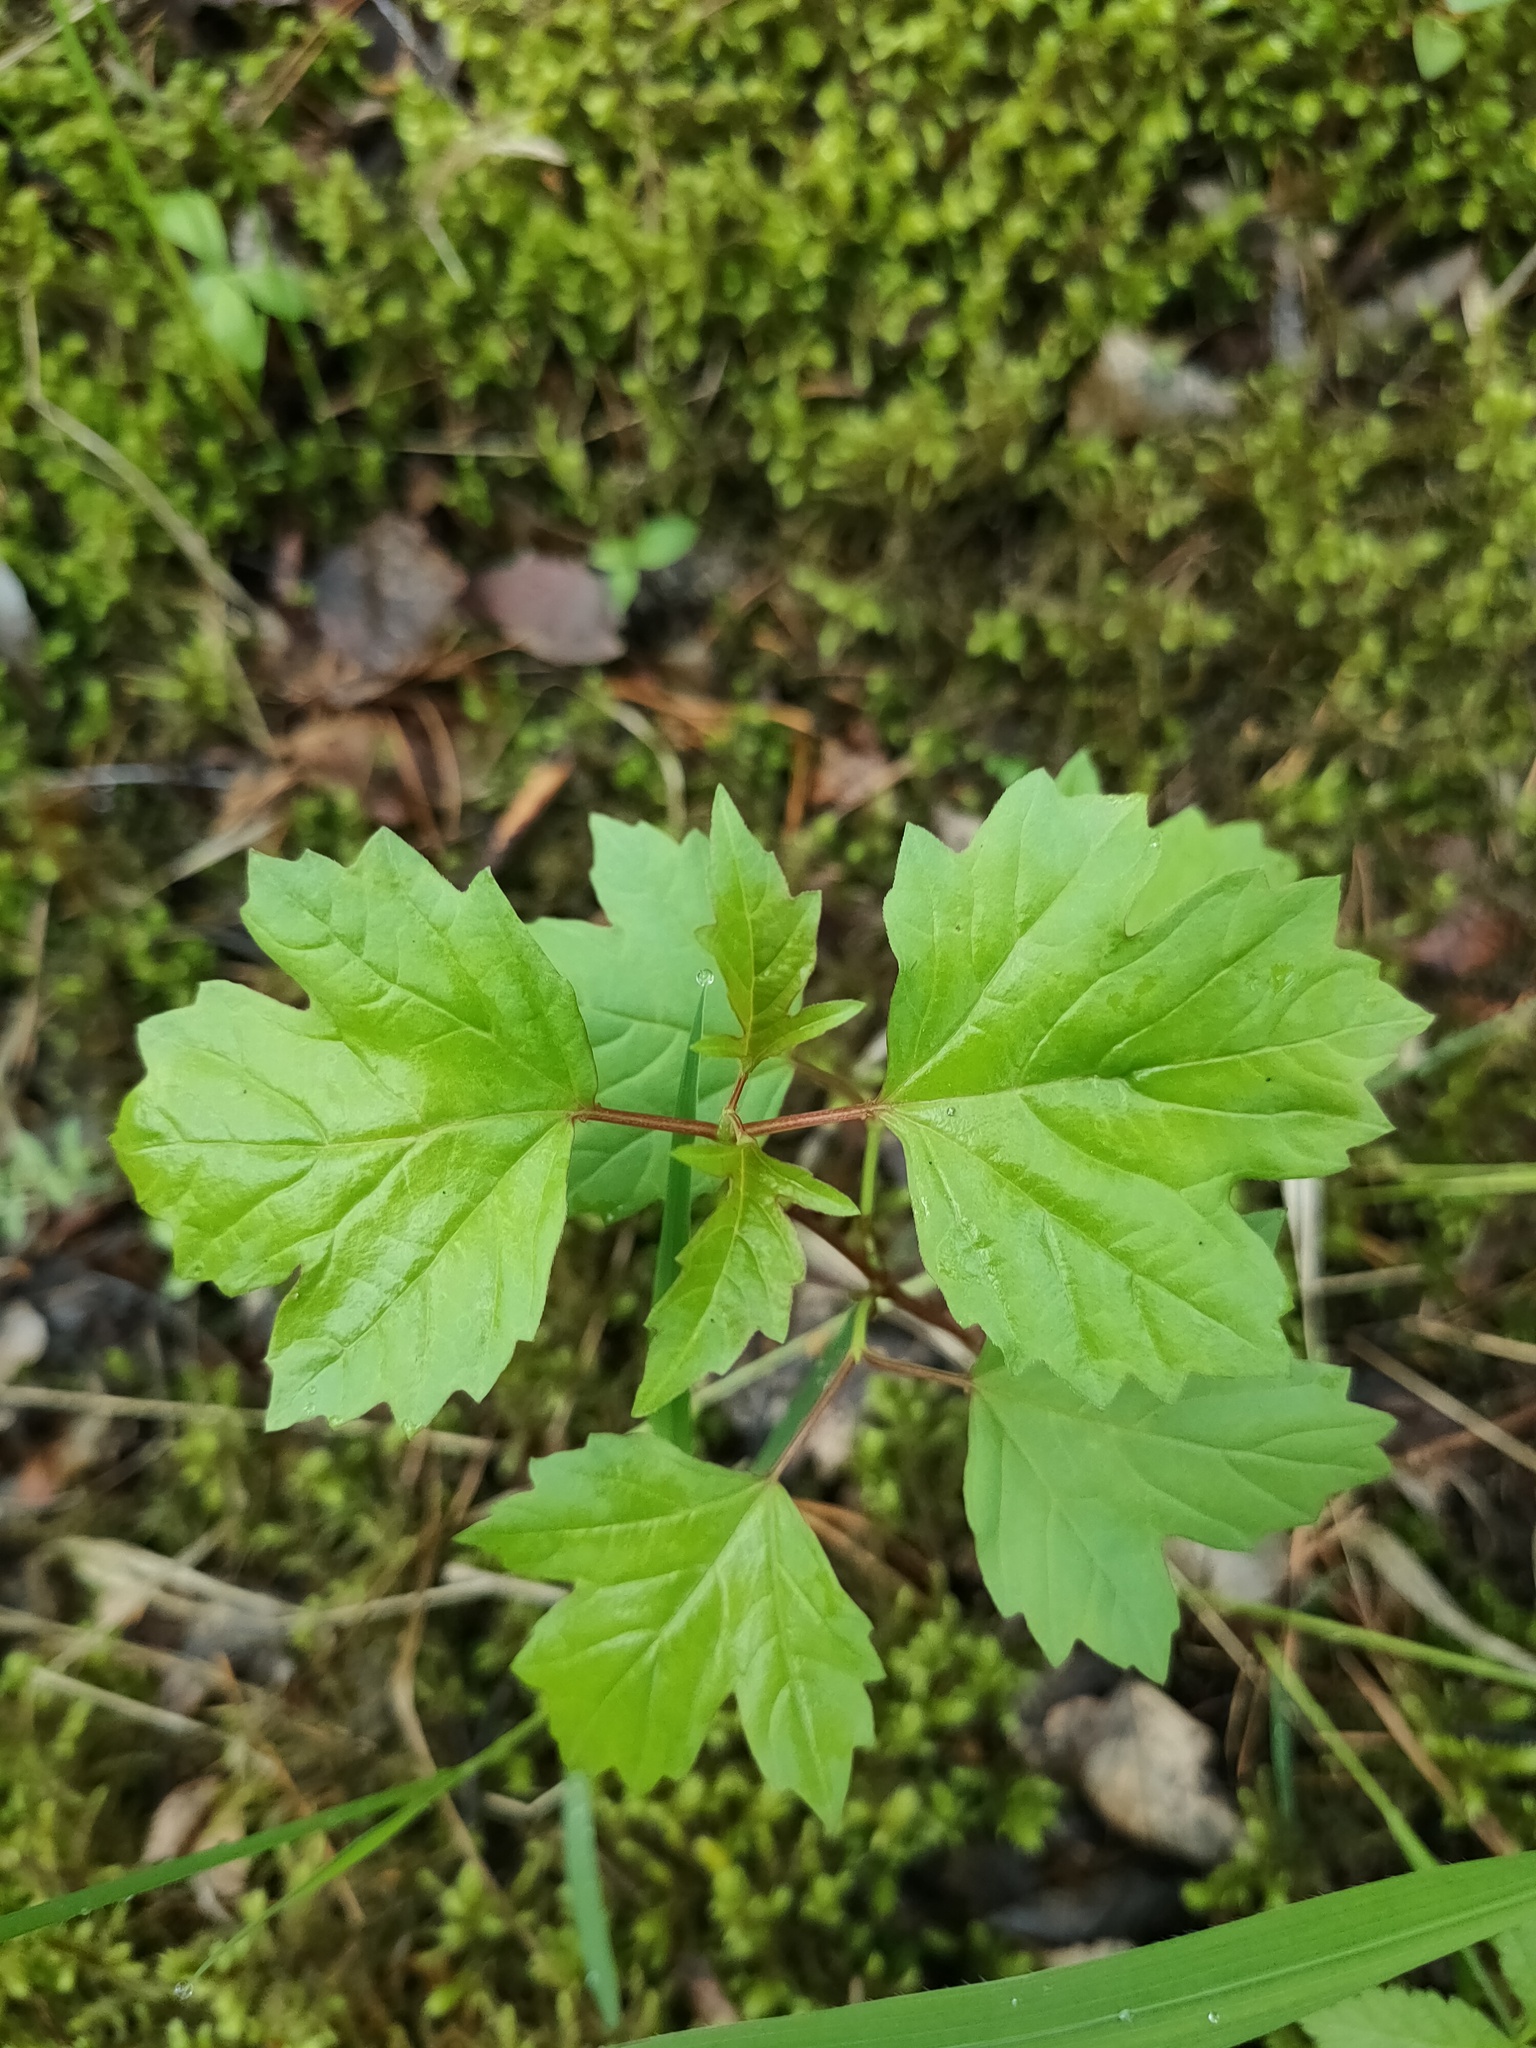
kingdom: Plantae
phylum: Tracheophyta
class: Magnoliopsida
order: Dipsacales
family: Viburnaceae
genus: Viburnum
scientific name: Viburnum opulus
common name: Guelder-rose
